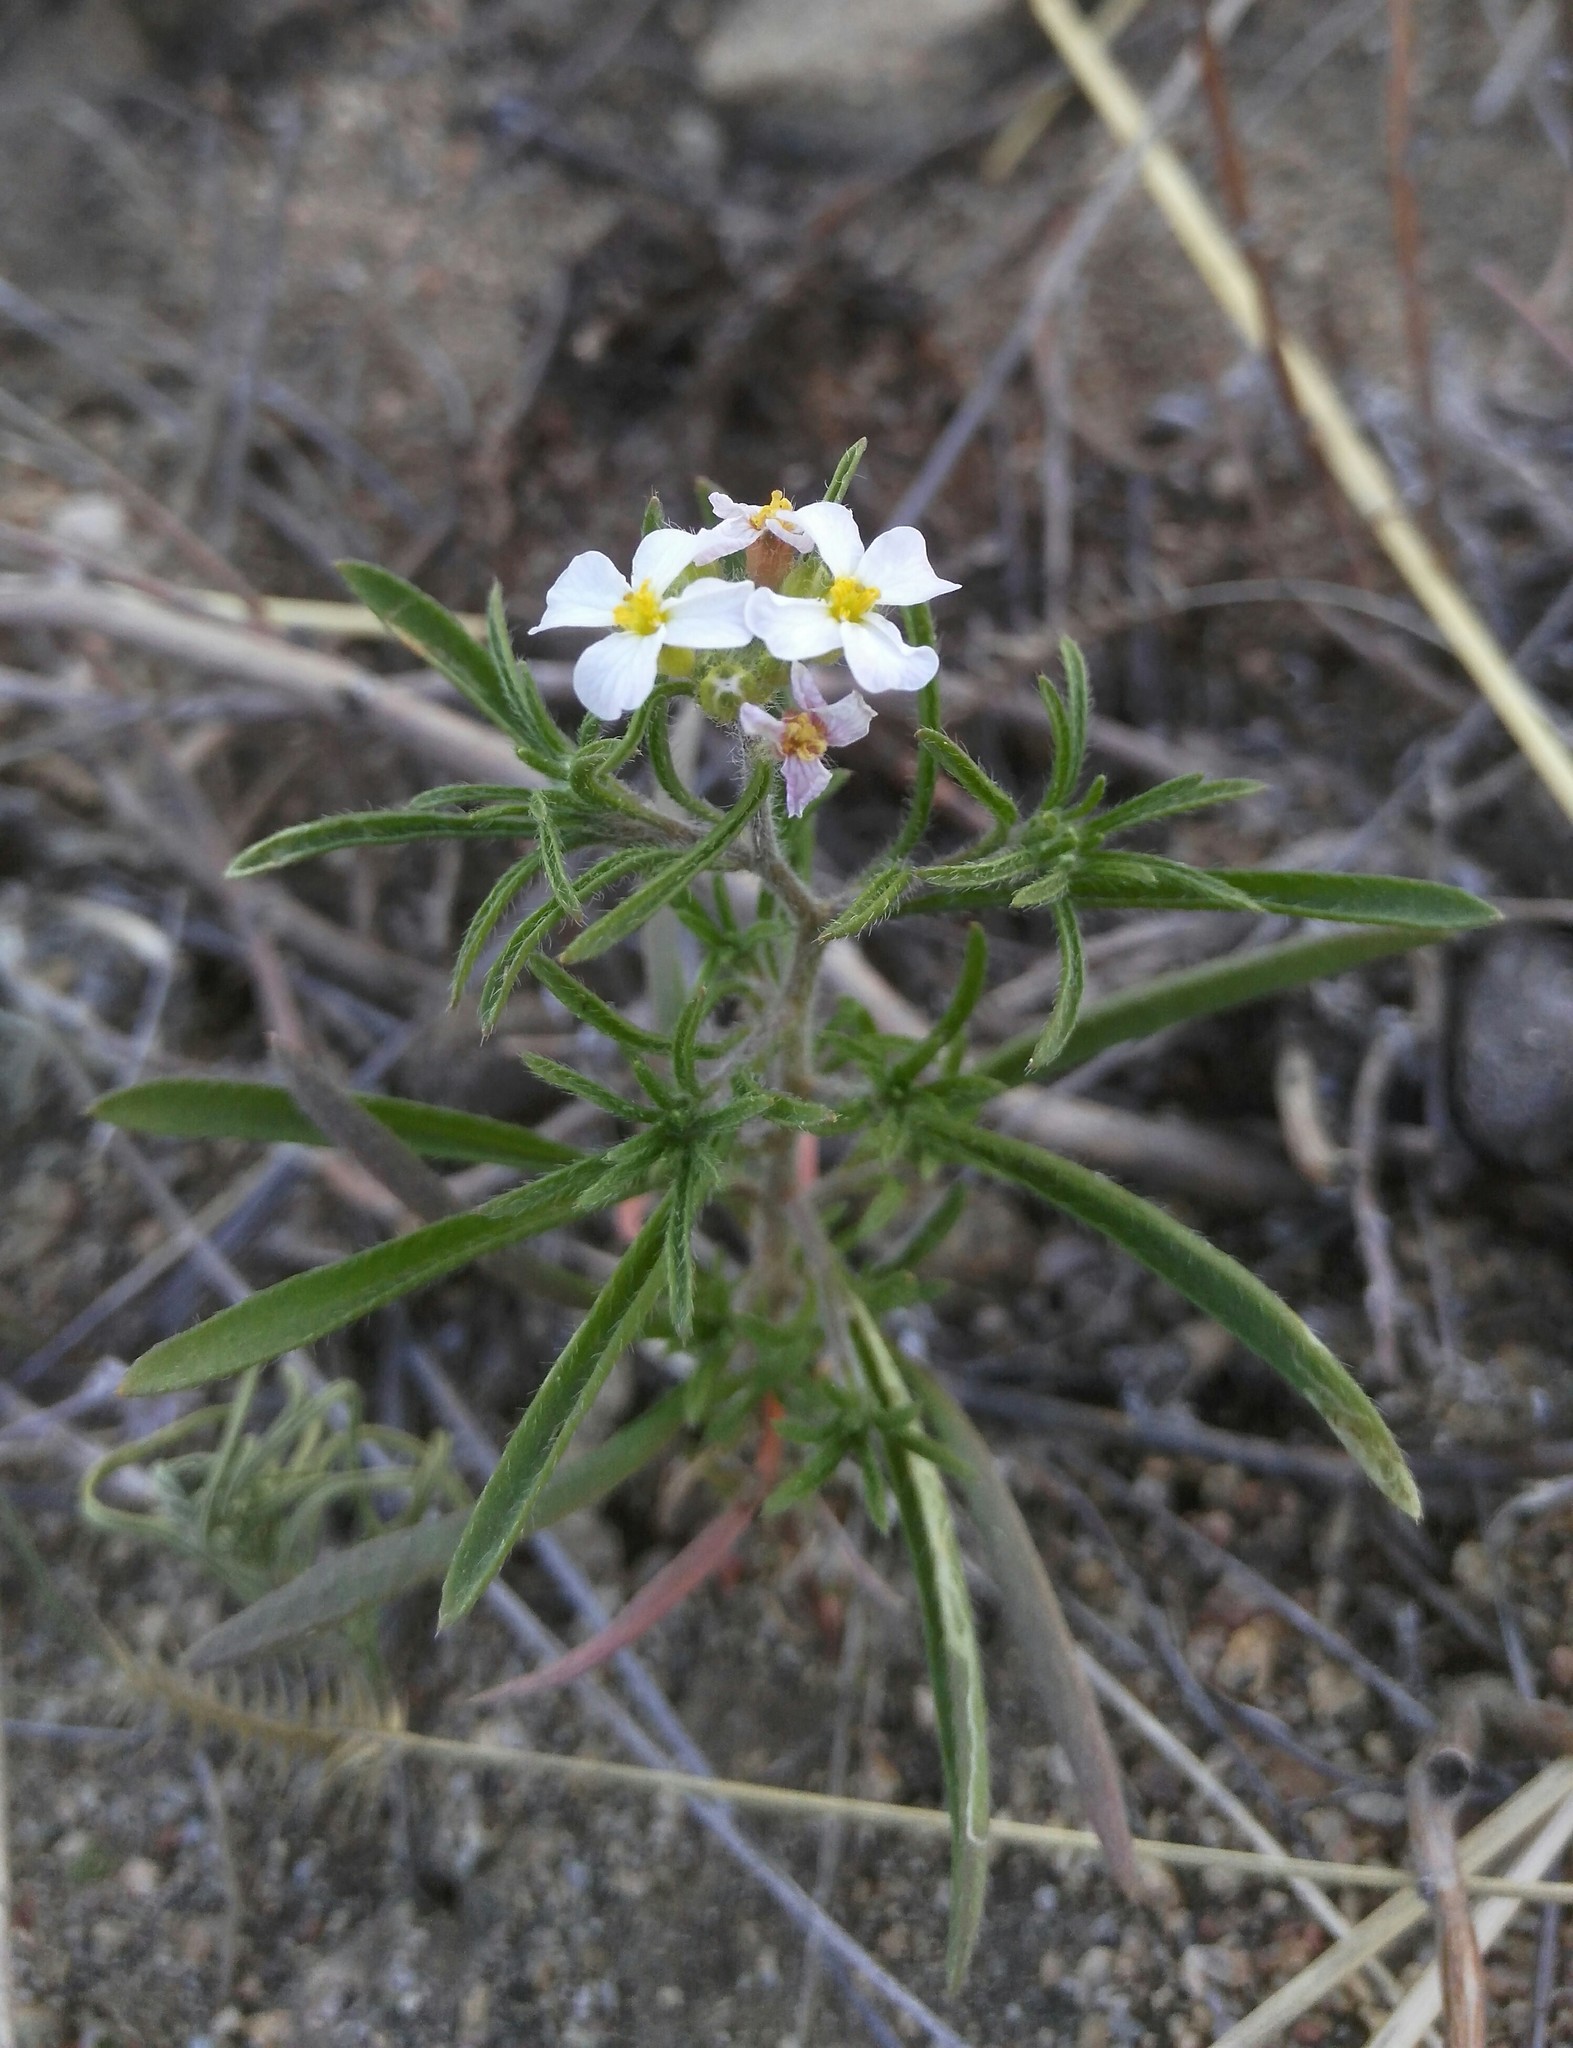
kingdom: Plantae
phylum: Tracheophyta
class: Magnoliopsida
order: Brassicales
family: Brassicaceae
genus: Dontostemon
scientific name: Dontostemon integrifolius
